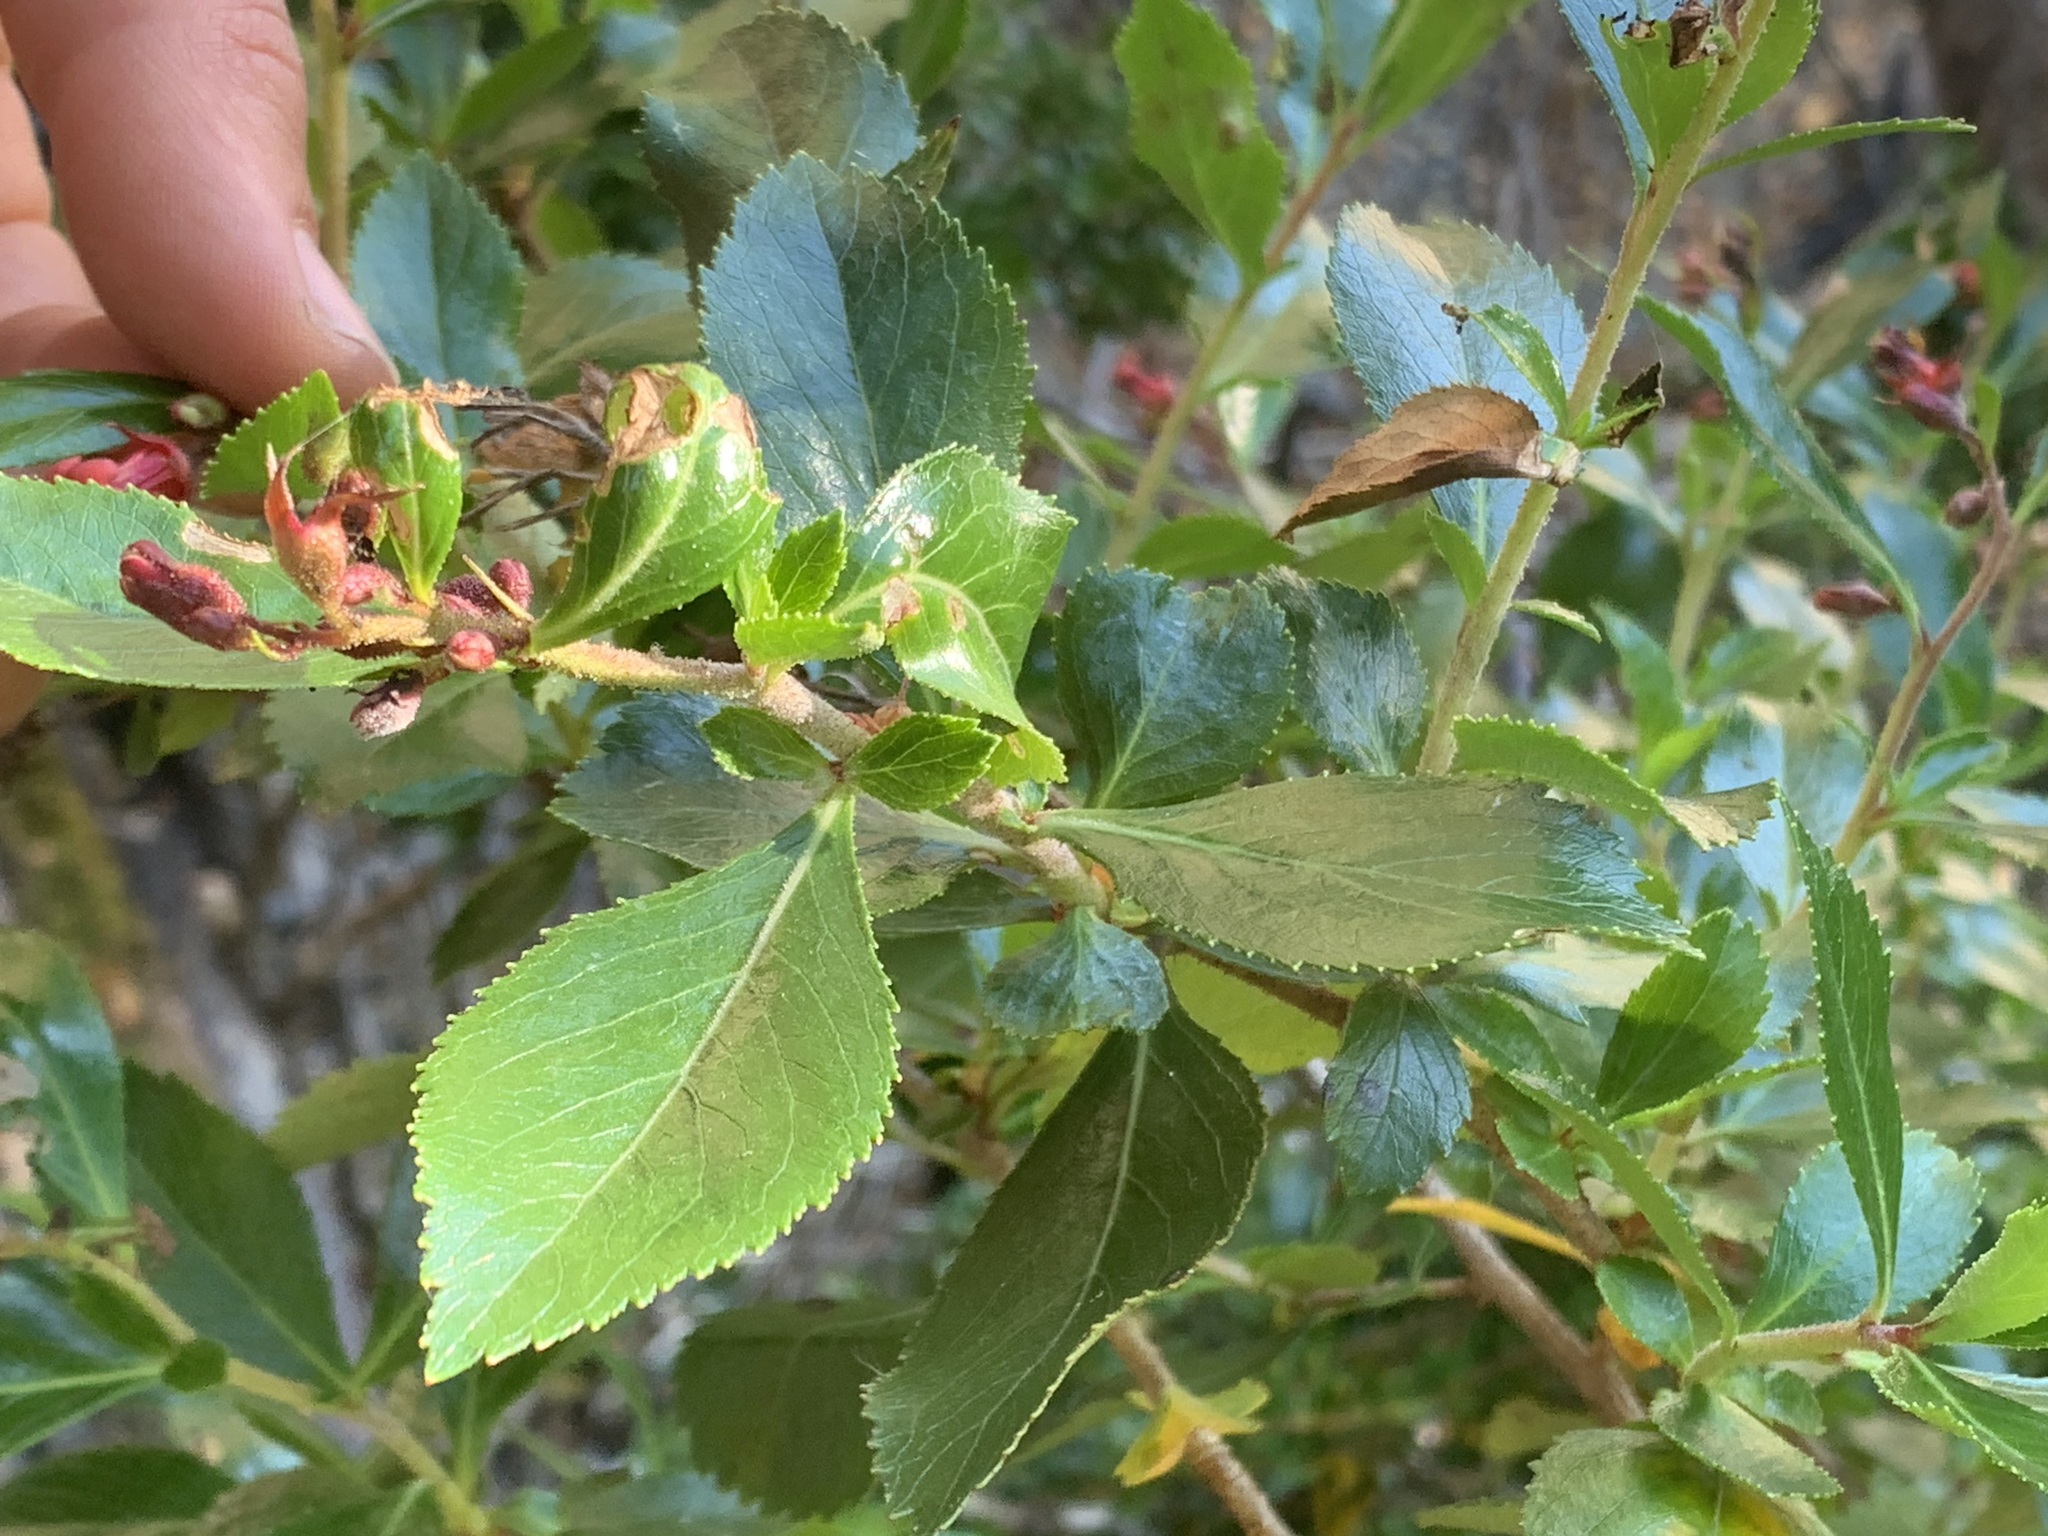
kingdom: Plantae
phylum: Tracheophyta
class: Magnoliopsida
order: Escalloniales
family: Escalloniaceae
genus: Escallonia
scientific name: Escallonia rubra
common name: Redclaws
